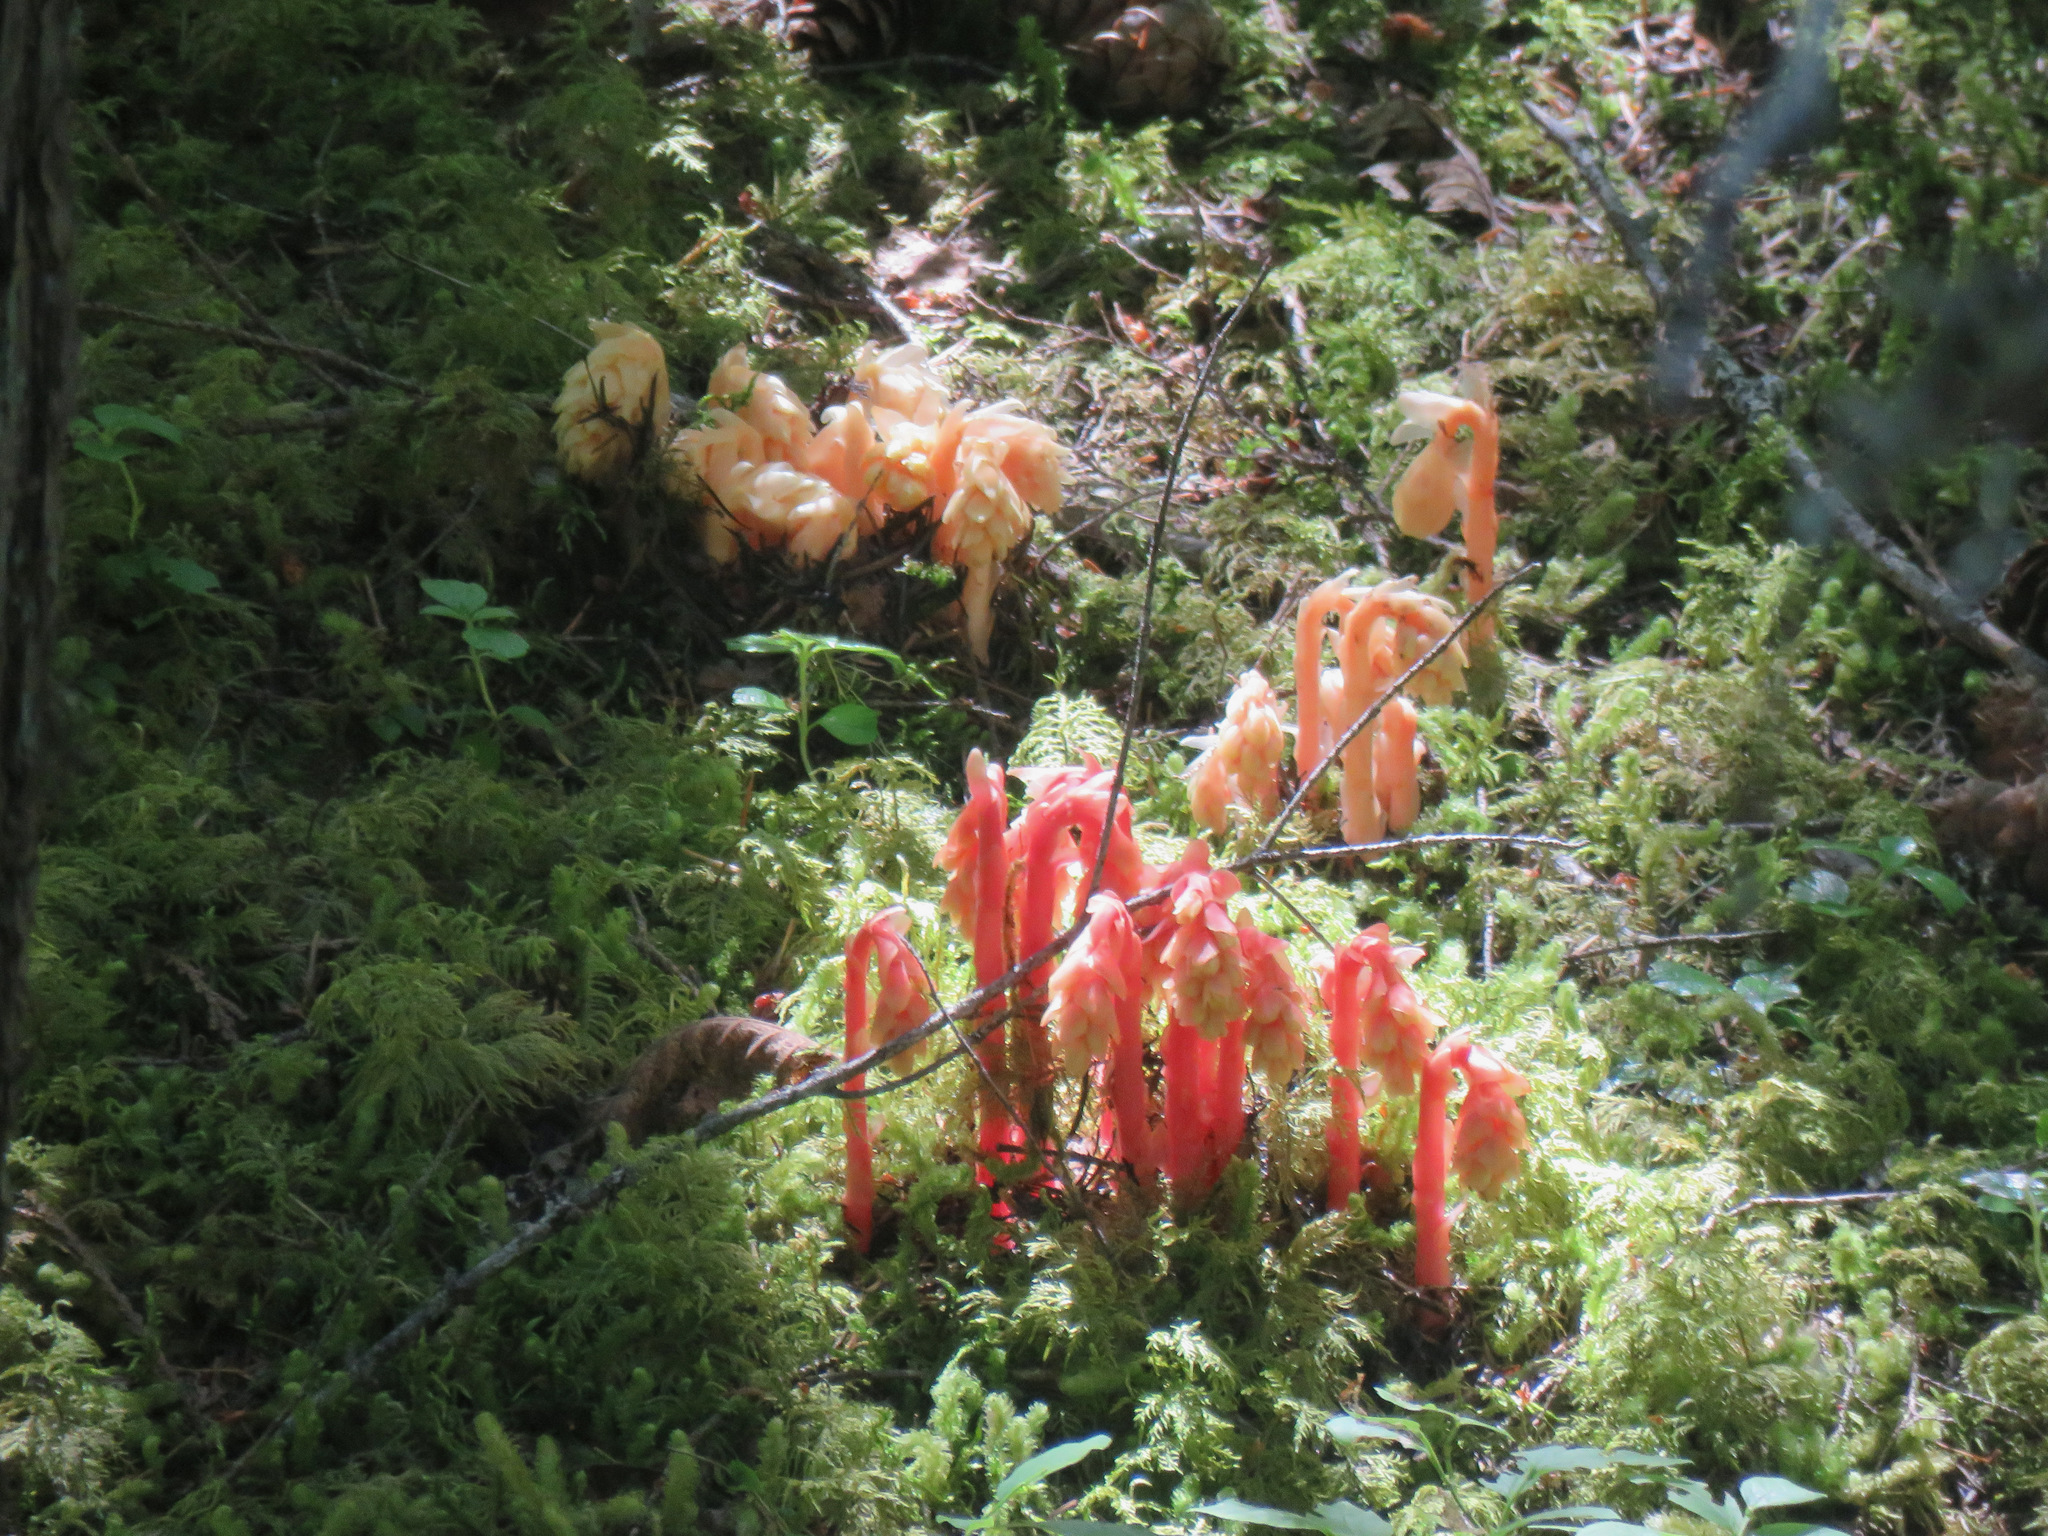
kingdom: Plantae
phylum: Tracheophyta
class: Magnoliopsida
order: Ericales
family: Ericaceae
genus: Hypopitys
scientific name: Hypopitys monotropa
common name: Yellow bird's-nest
